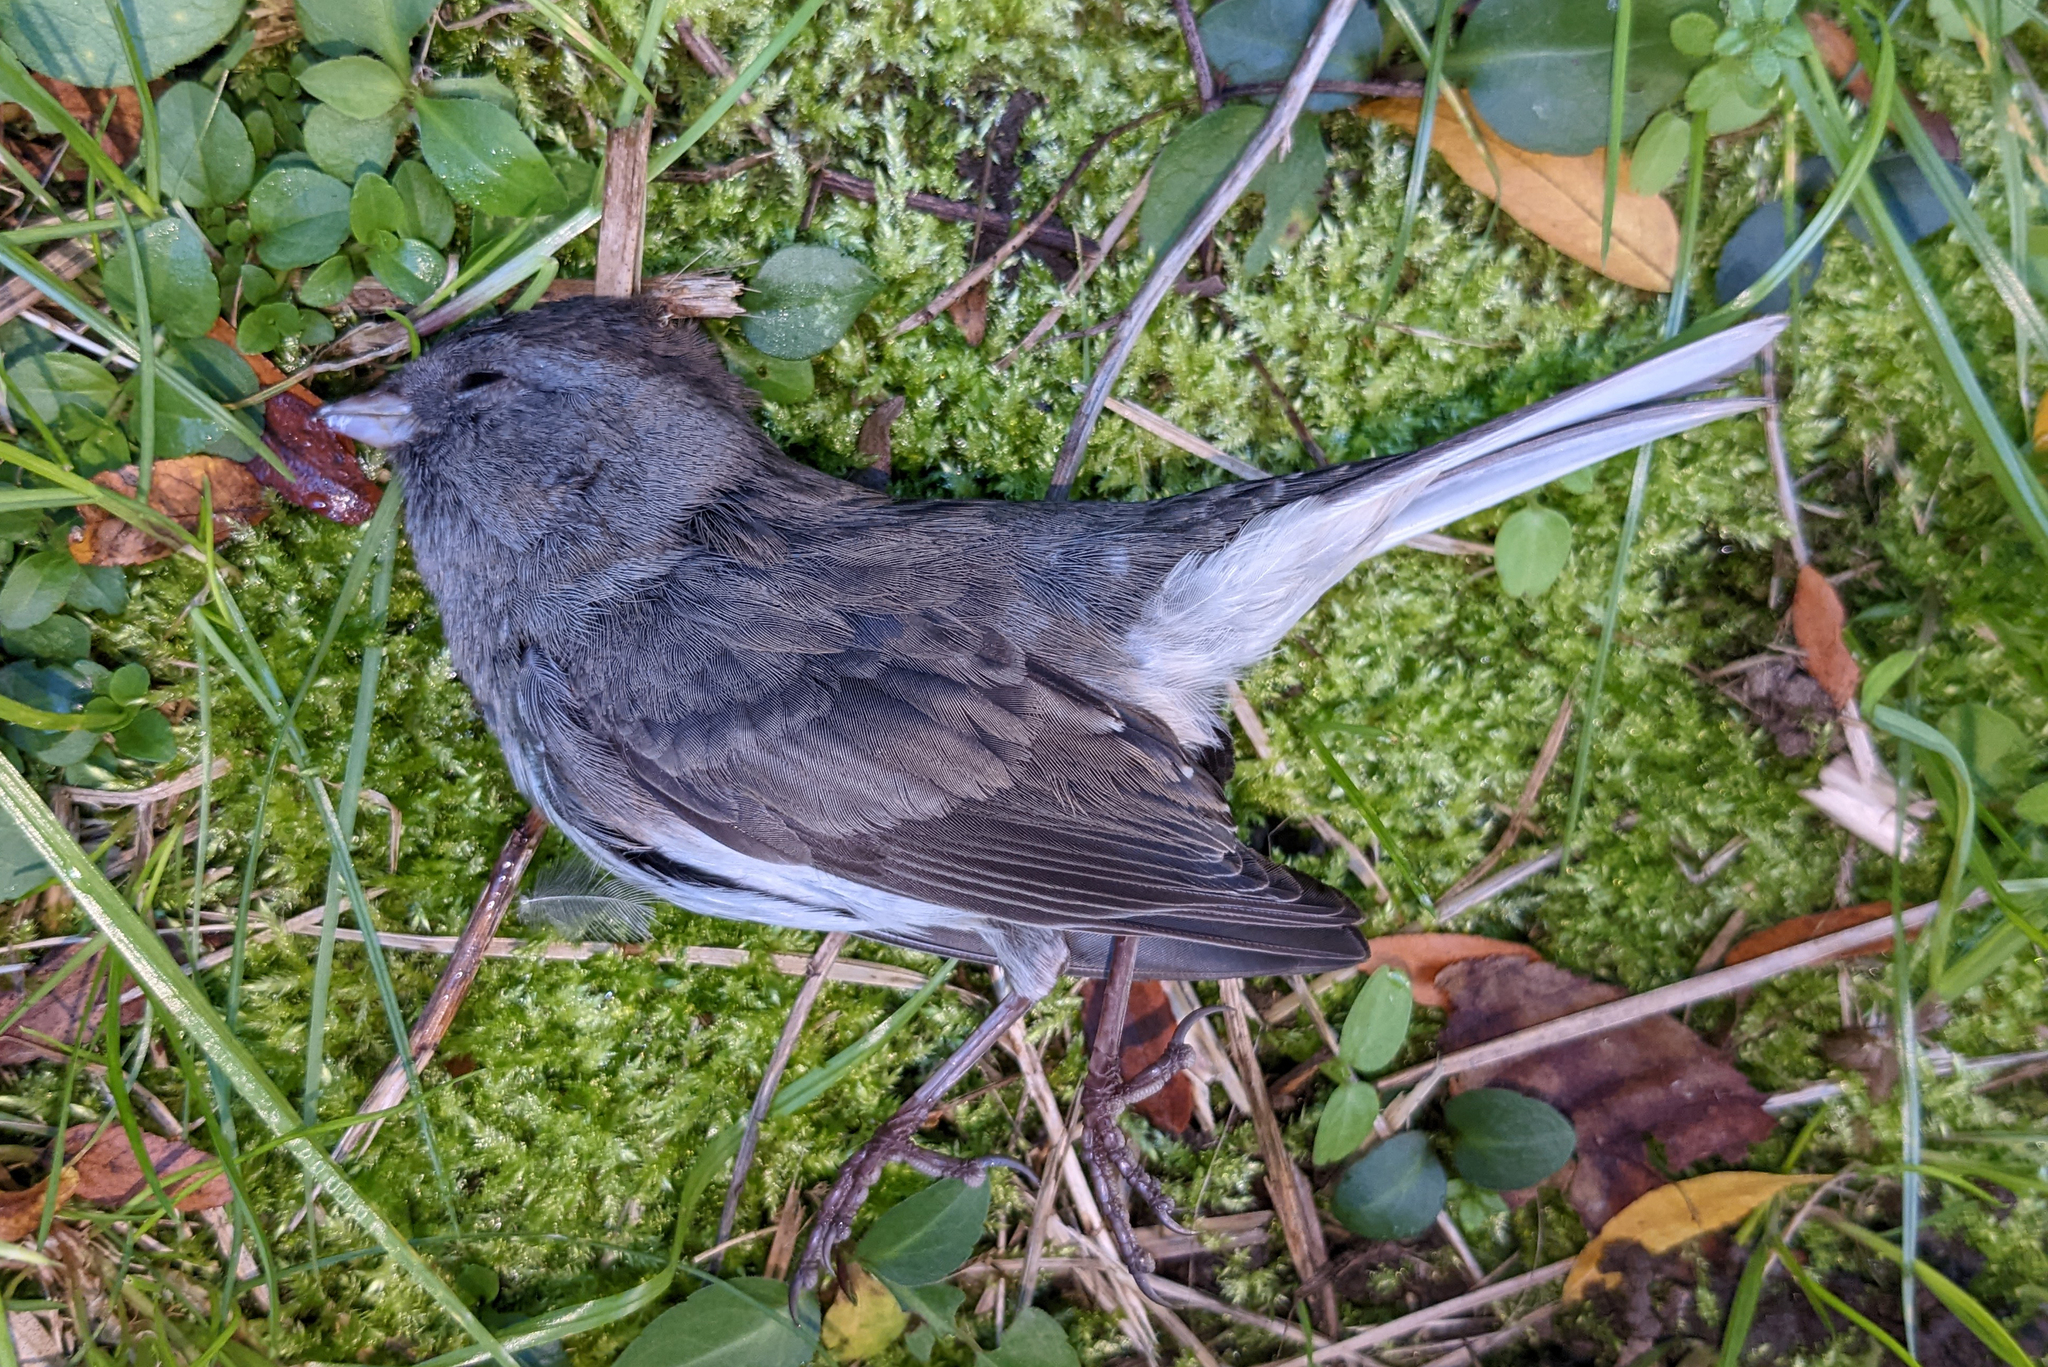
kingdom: Animalia
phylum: Chordata
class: Aves
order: Passeriformes
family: Passerellidae
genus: Junco
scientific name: Junco hyemalis
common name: Dark-eyed junco
